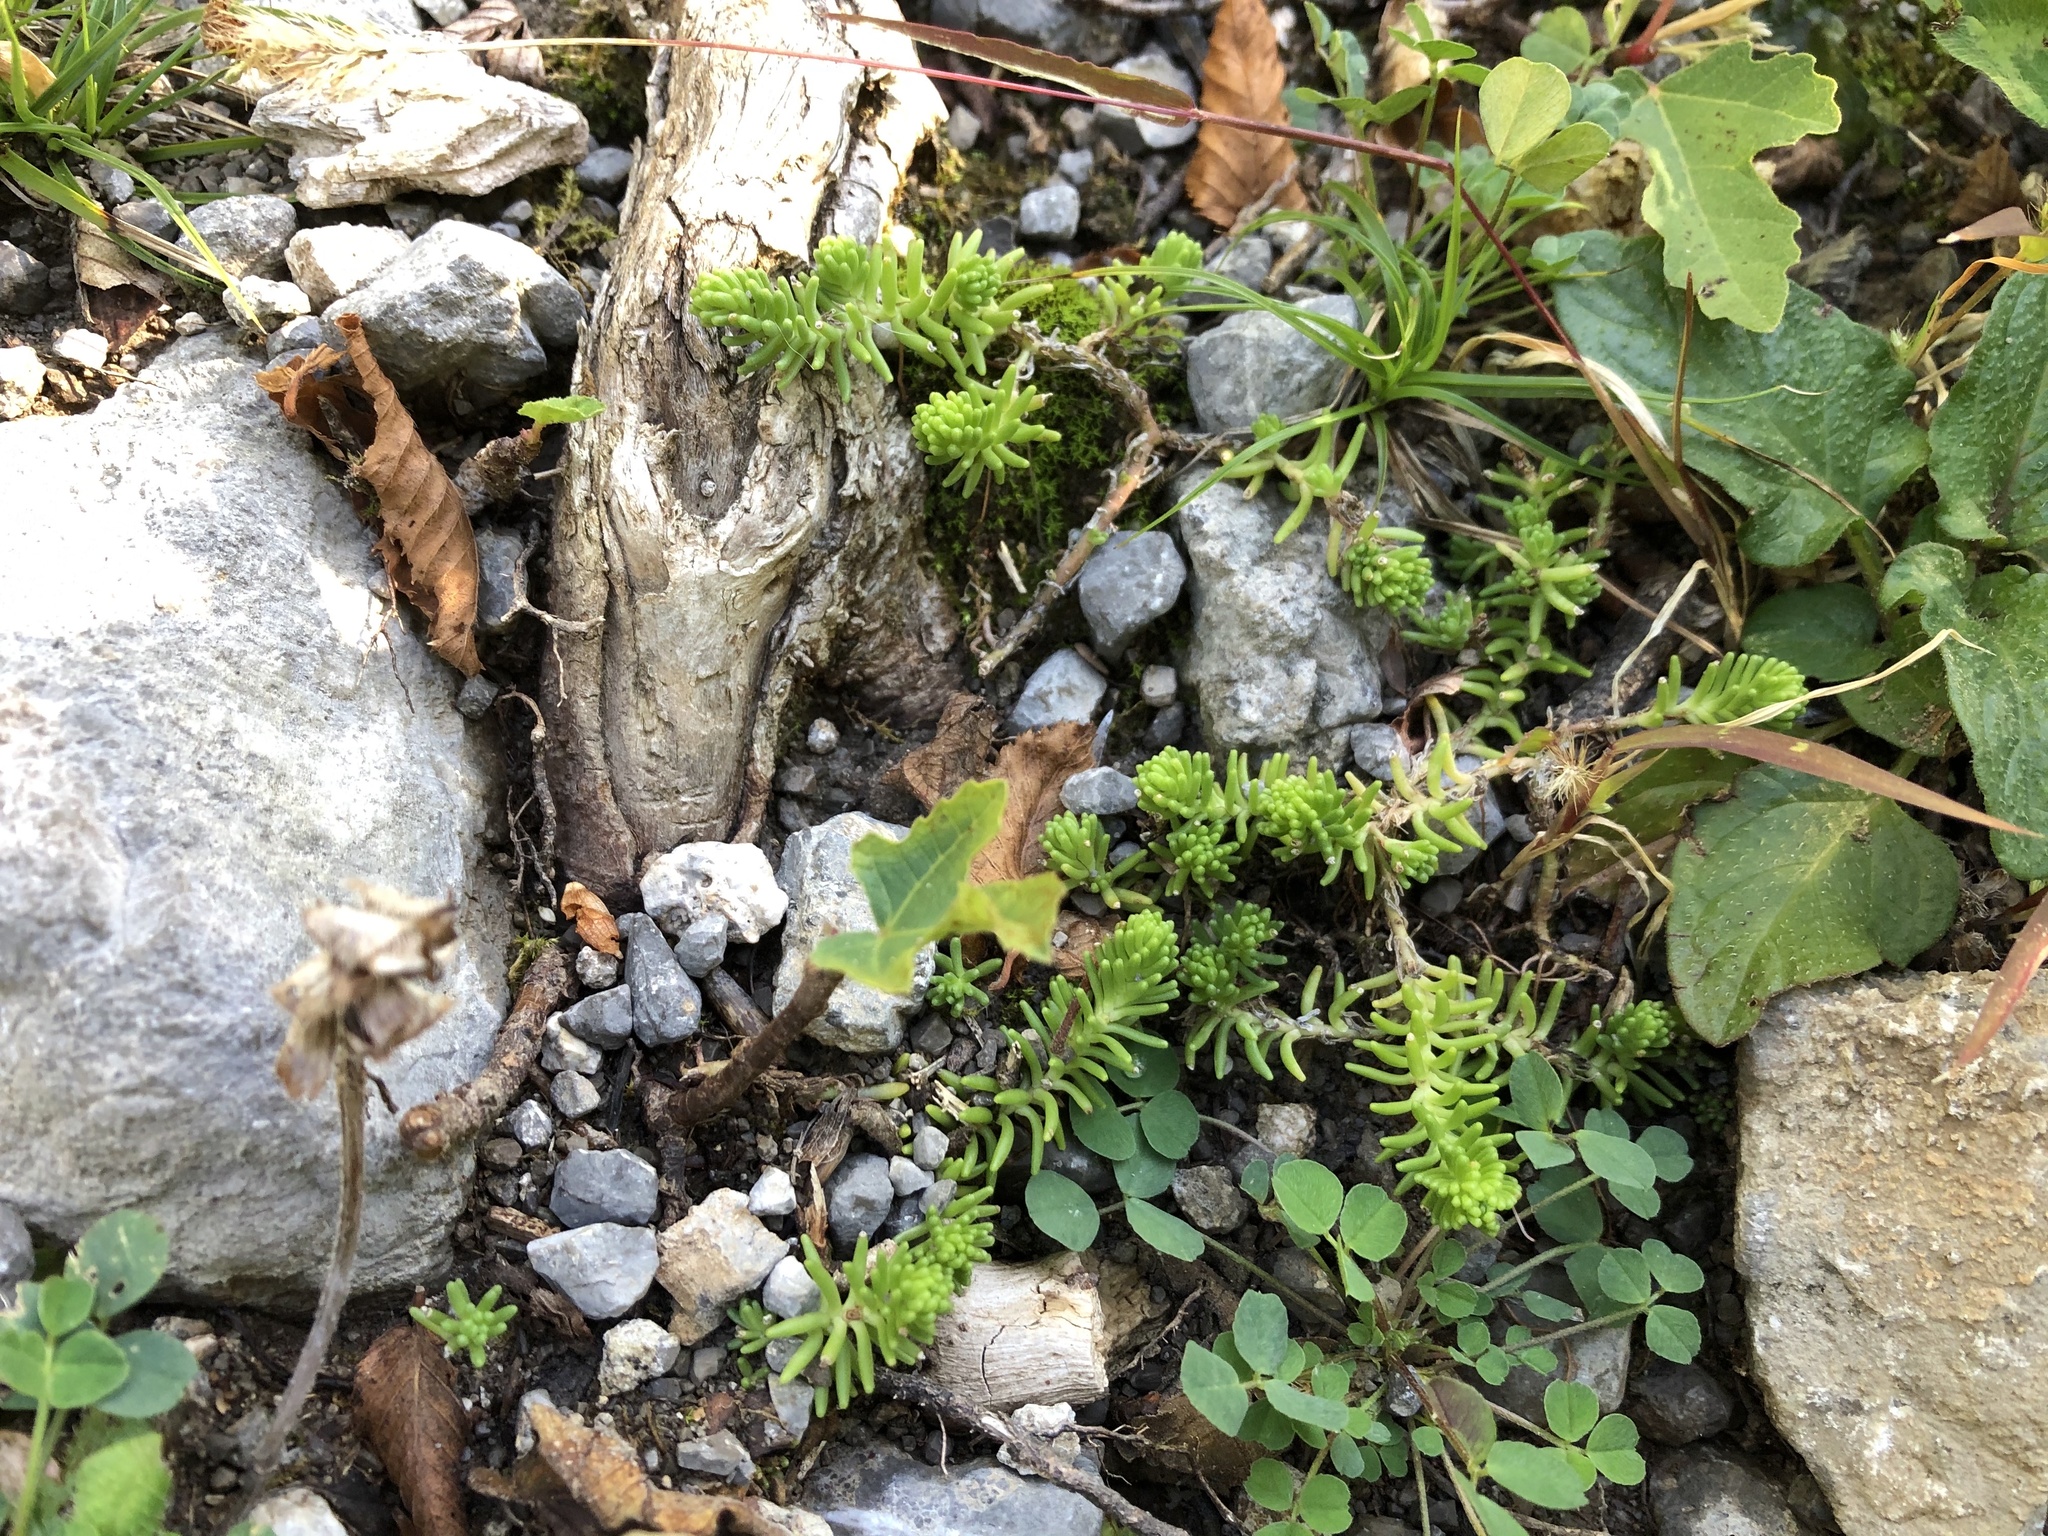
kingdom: Plantae
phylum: Tracheophyta
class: Magnoliopsida
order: Saxifragales
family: Crassulaceae
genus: Sedum
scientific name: Sedum sexangulare
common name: Tasteless stonecrop
